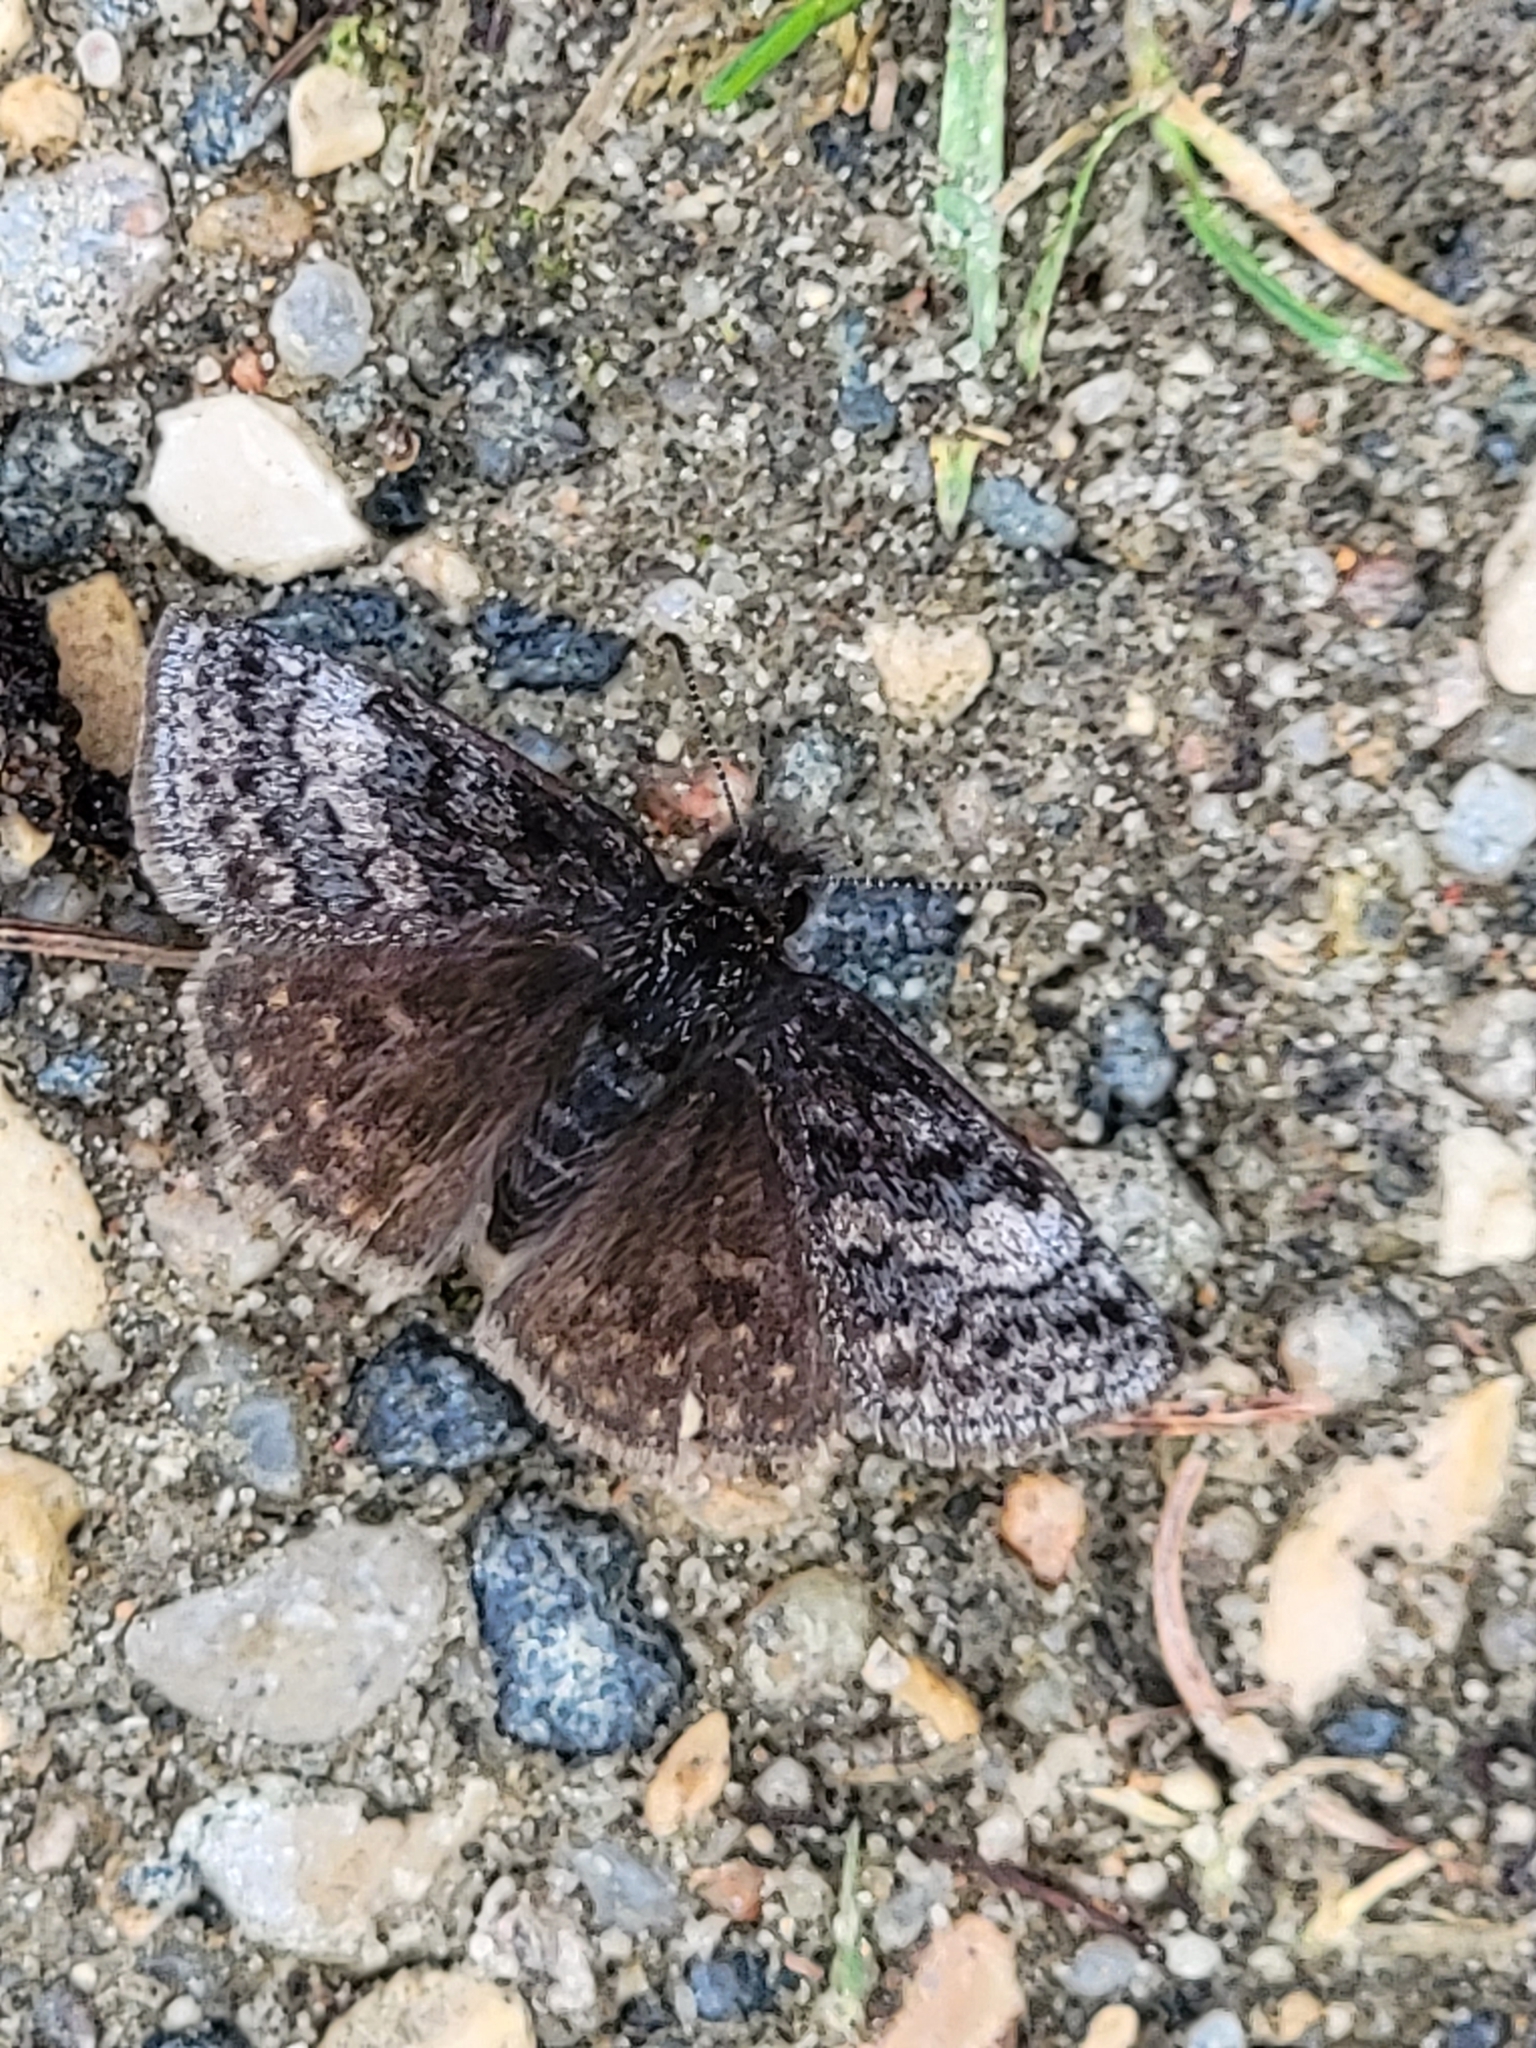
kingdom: Animalia
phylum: Arthropoda
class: Insecta
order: Lepidoptera
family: Hesperiidae
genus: Erynnis
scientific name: Erynnis icelus
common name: Dreamy duskywing
